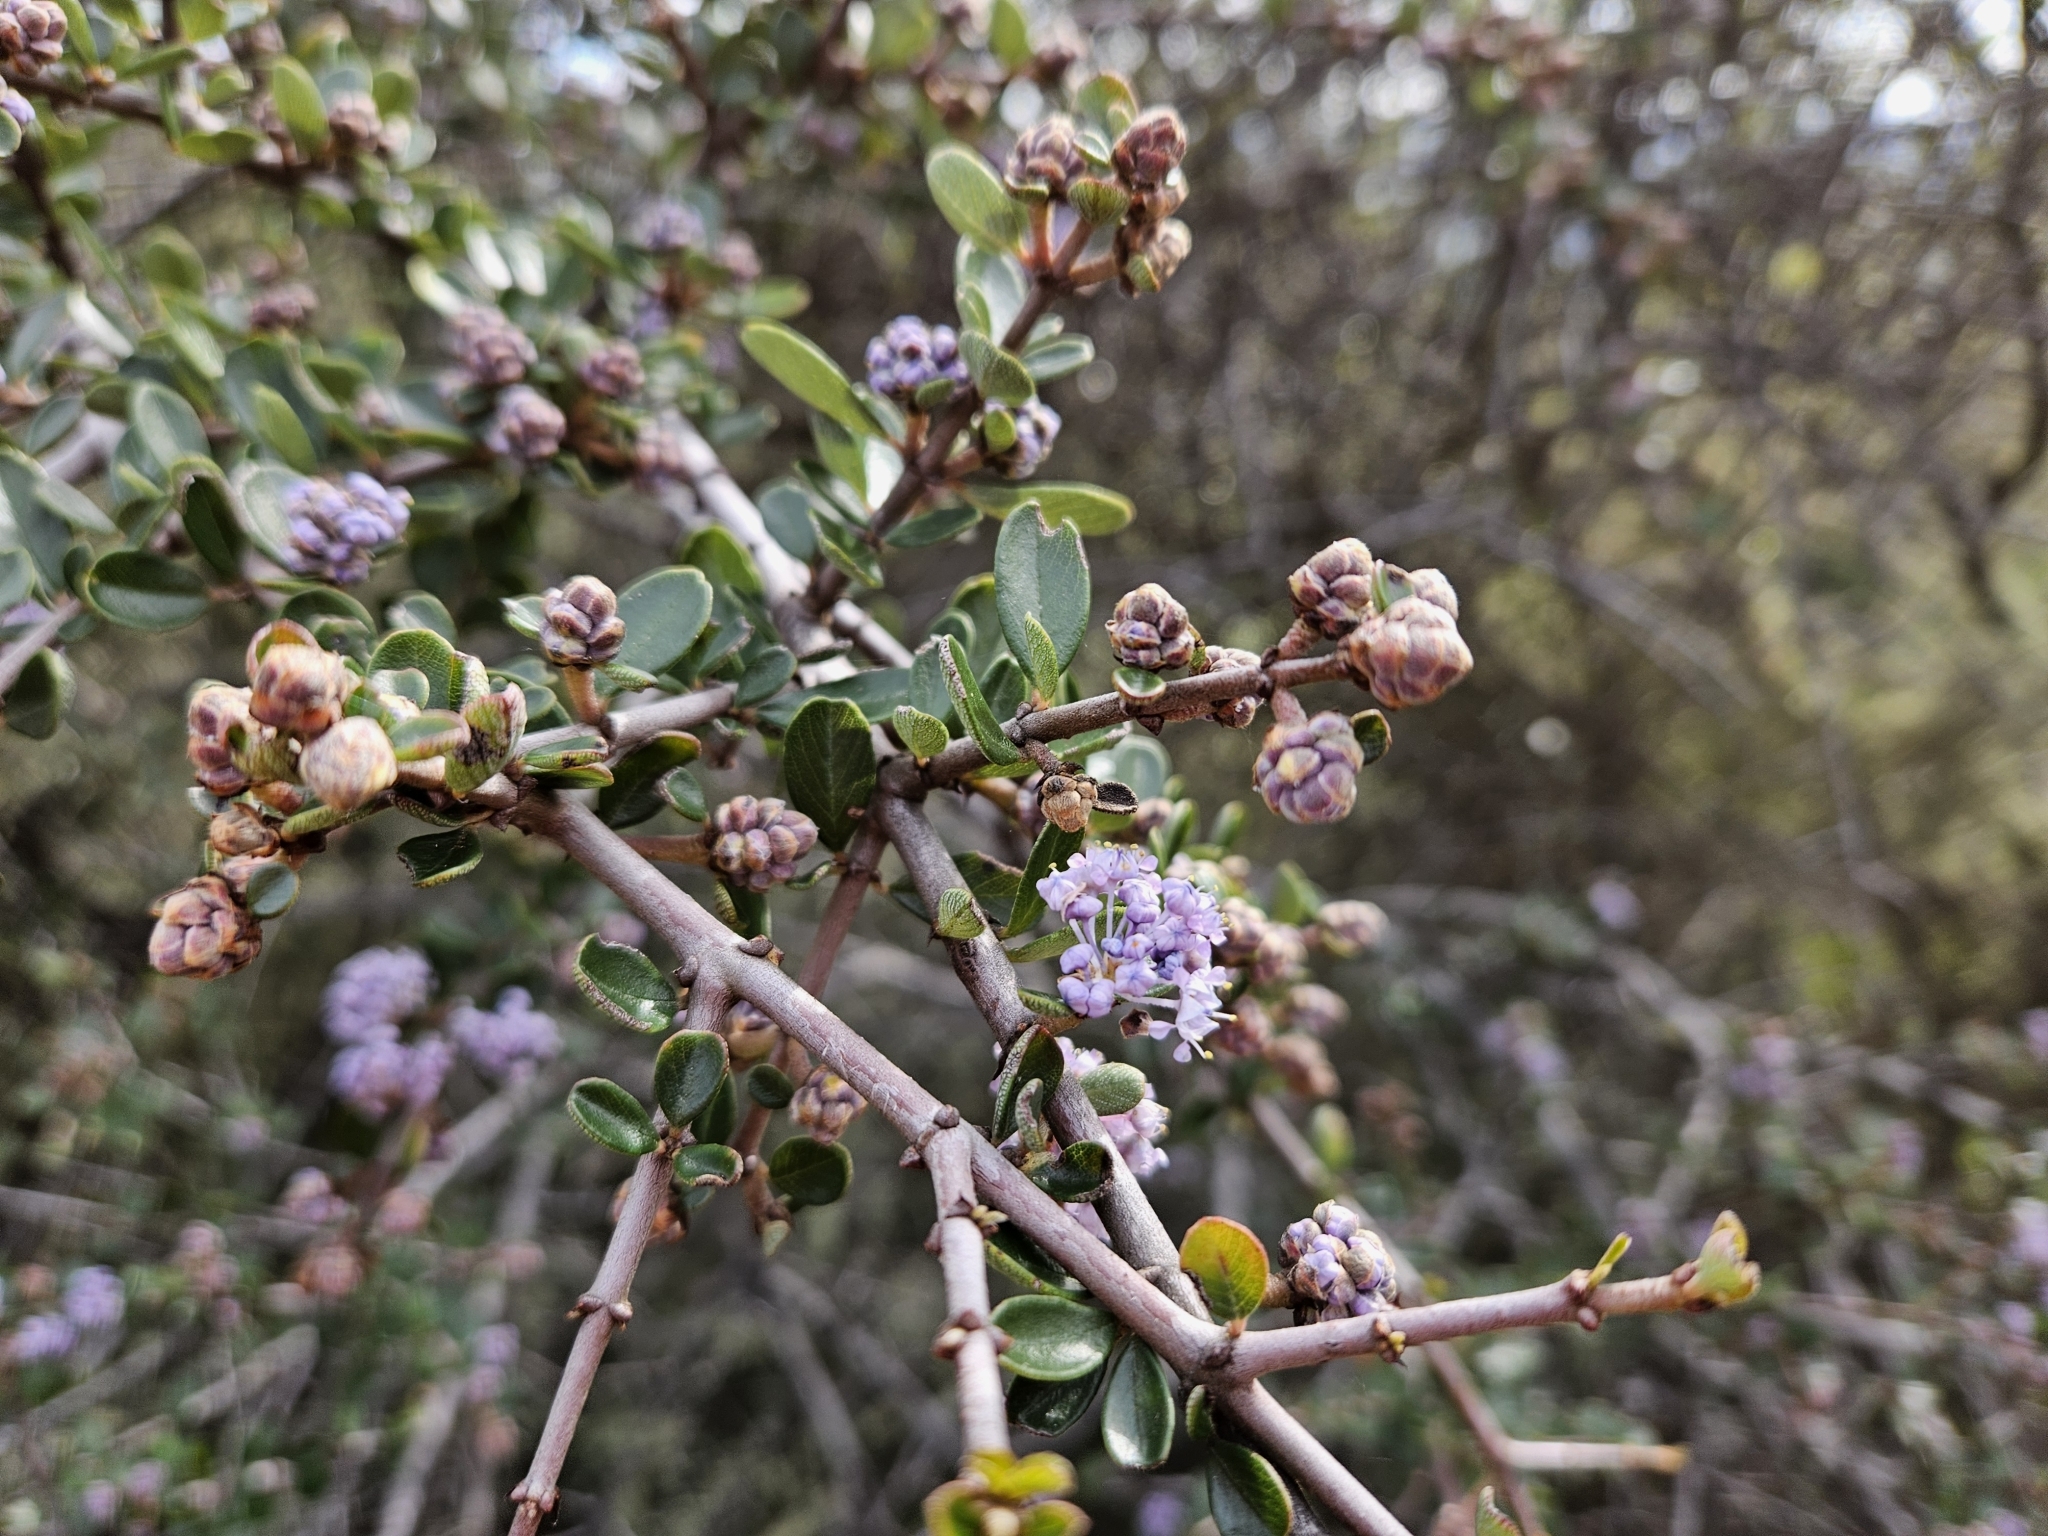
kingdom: Plantae
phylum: Tracheophyta
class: Magnoliopsida
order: Rosales
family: Rhamnaceae
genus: Ceanothus
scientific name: Ceanothus cuneatus
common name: Cuneate ceanothus
